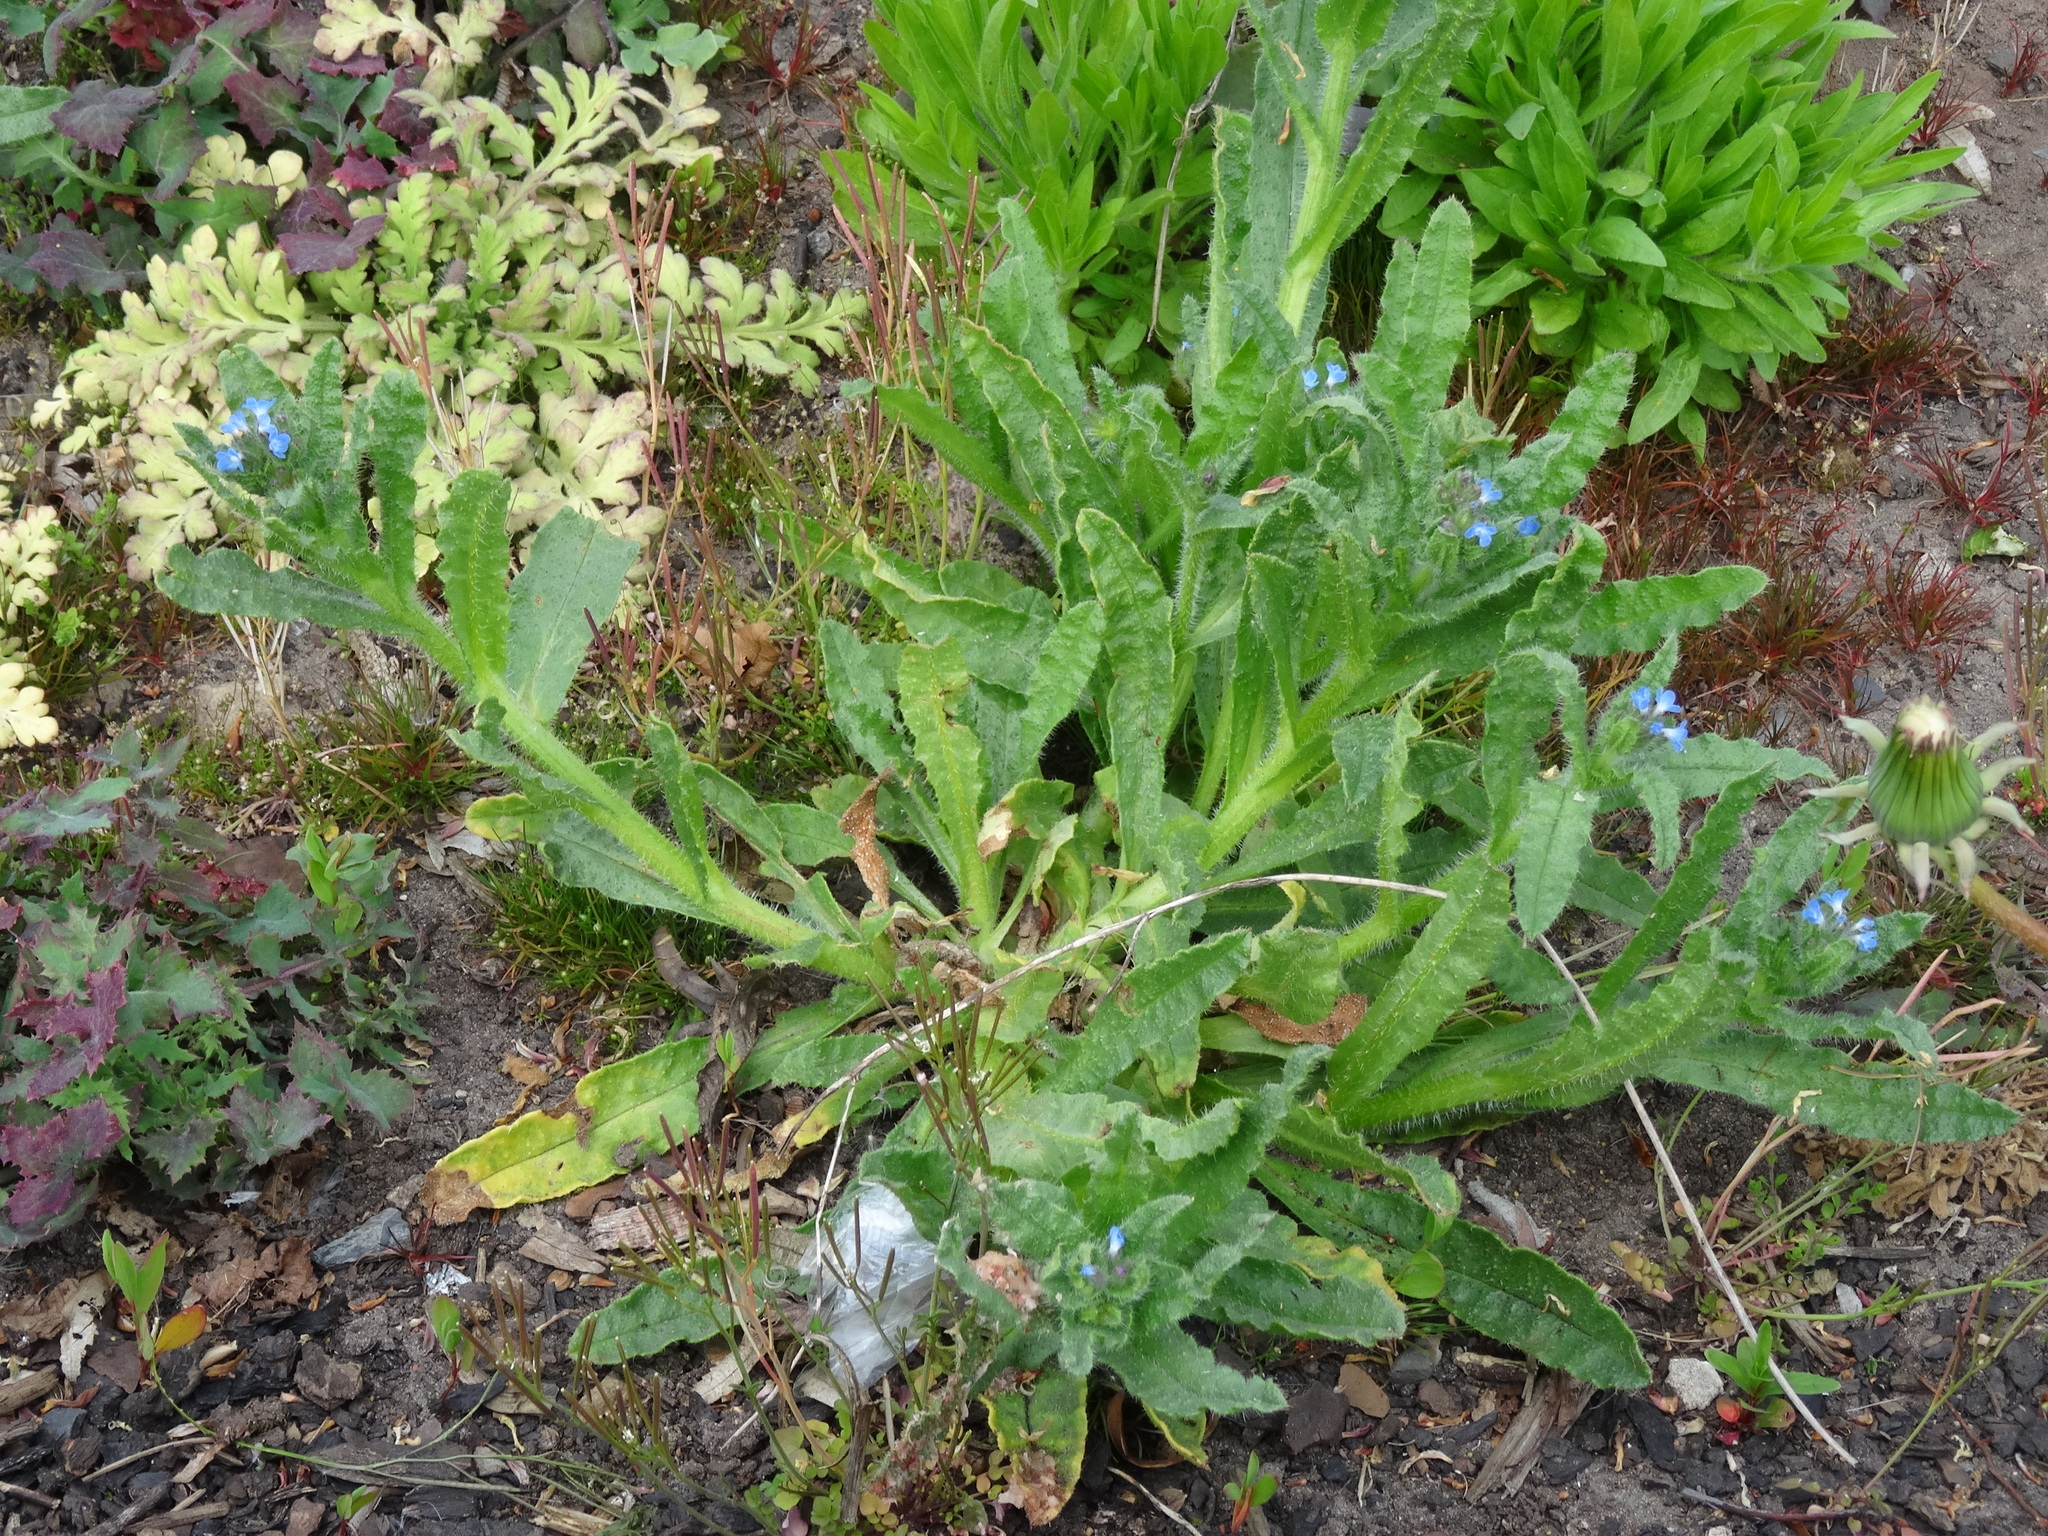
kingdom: Plantae
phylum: Tracheophyta
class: Magnoliopsida
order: Boraginales
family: Boraginaceae
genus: Lycopsis
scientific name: Lycopsis arvensis
